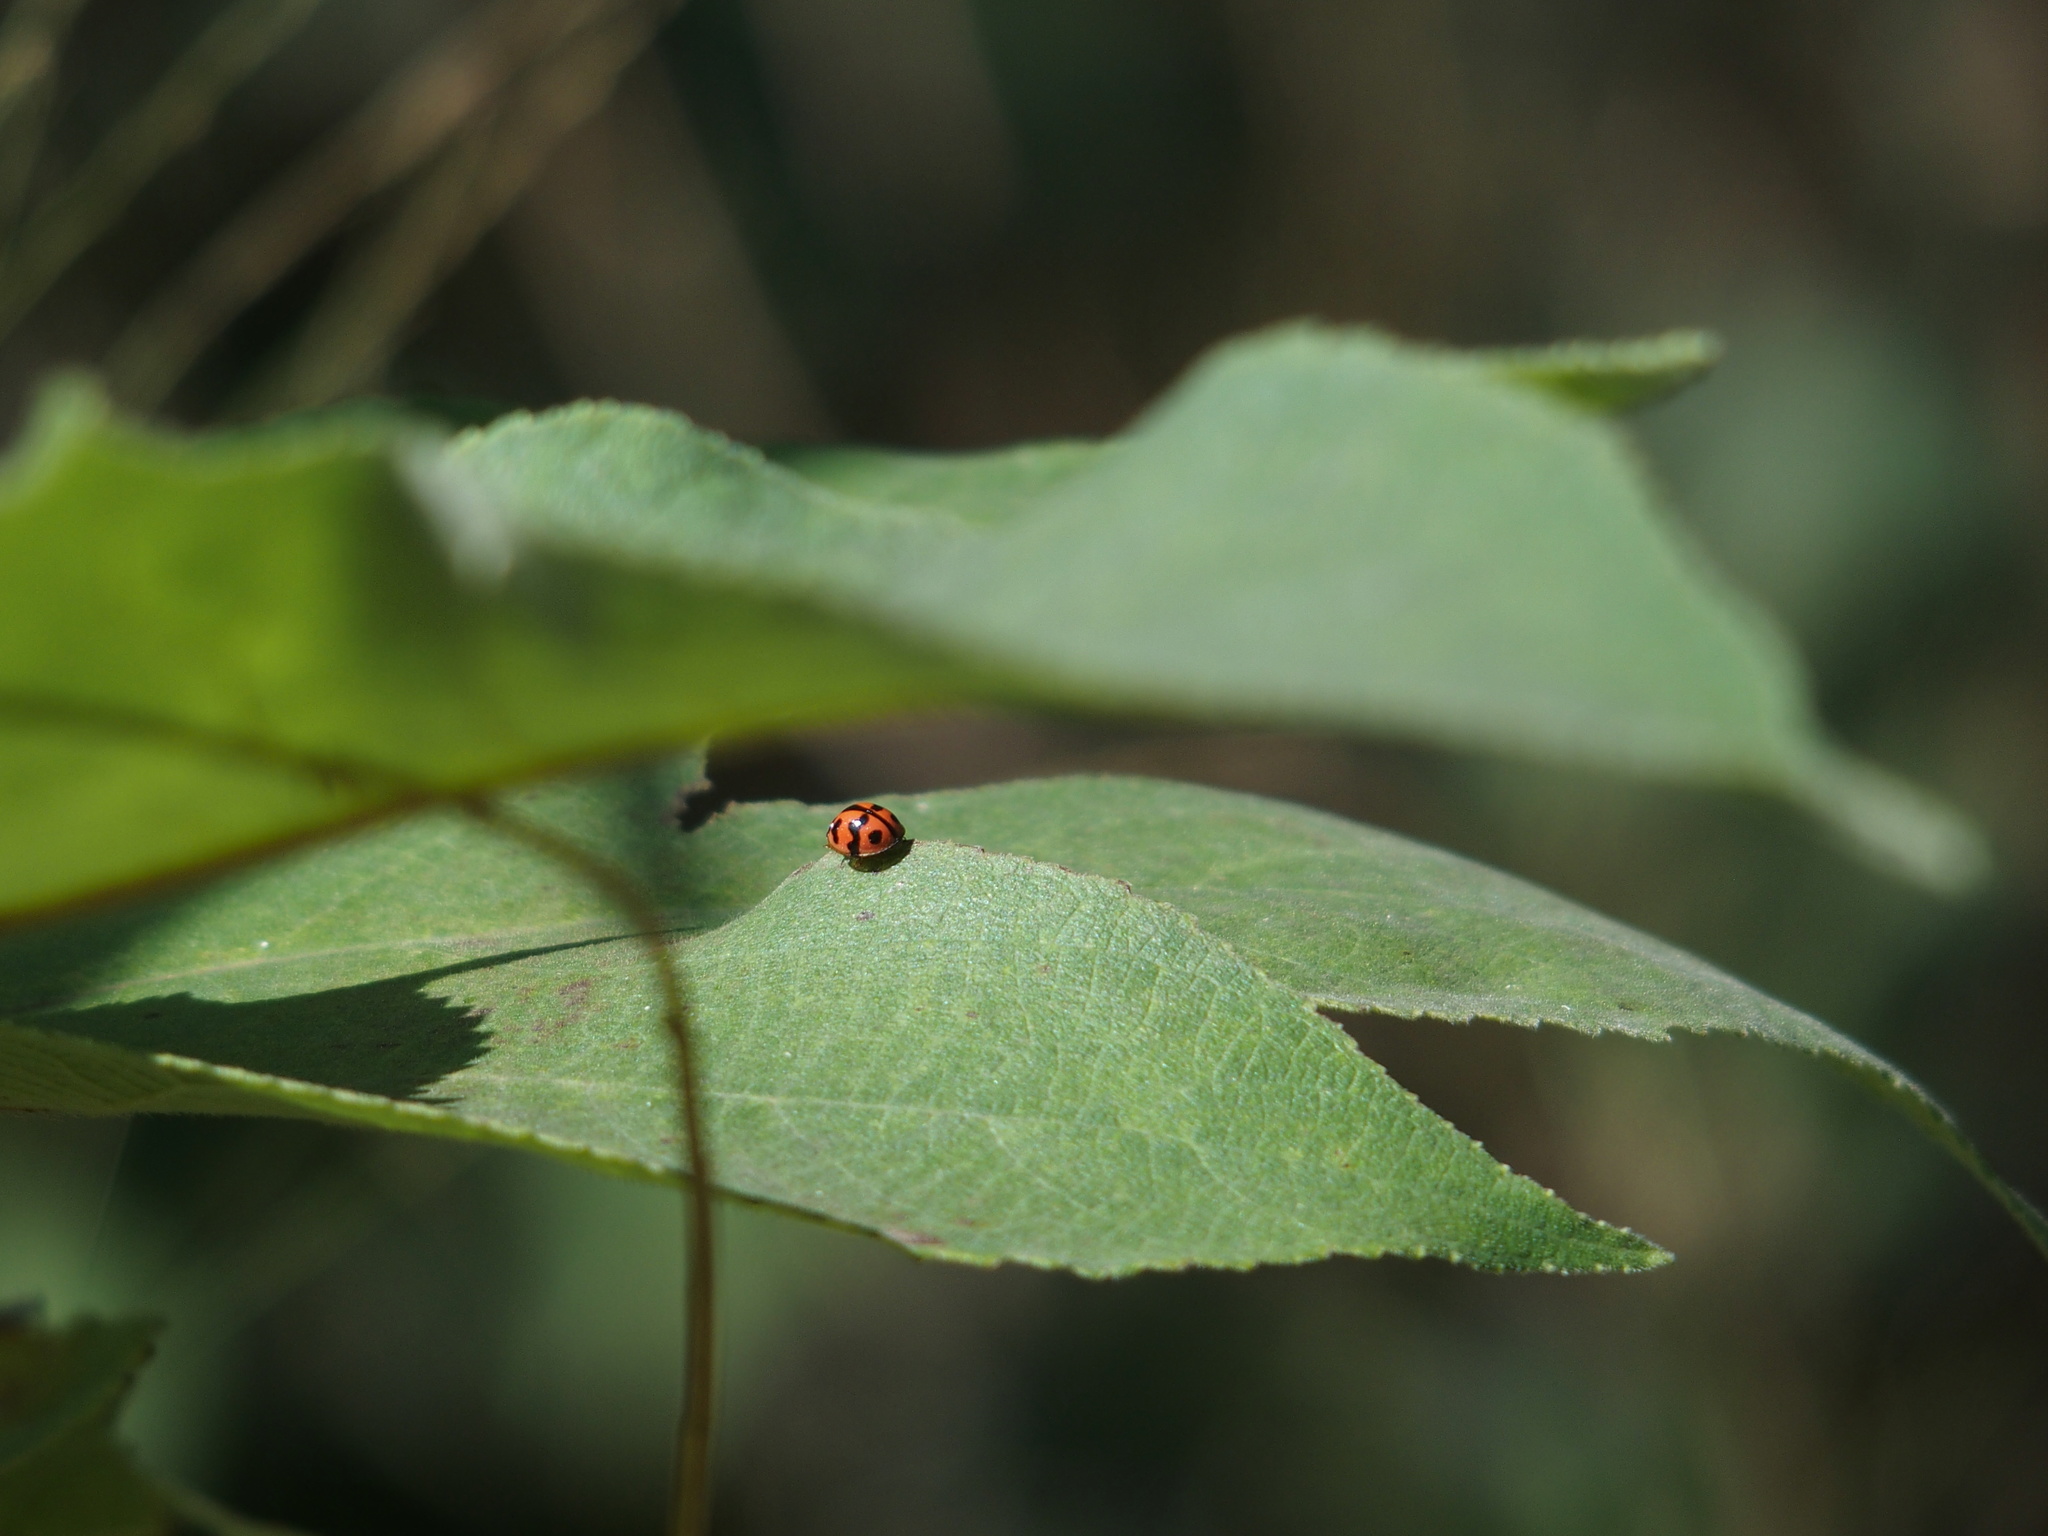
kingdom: Animalia
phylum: Arthropoda
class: Insecta
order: Coleoptera
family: Coccinellidae
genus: Cheilomenes
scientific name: Cheilomenes sexmaculata
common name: Ladybird beetle
